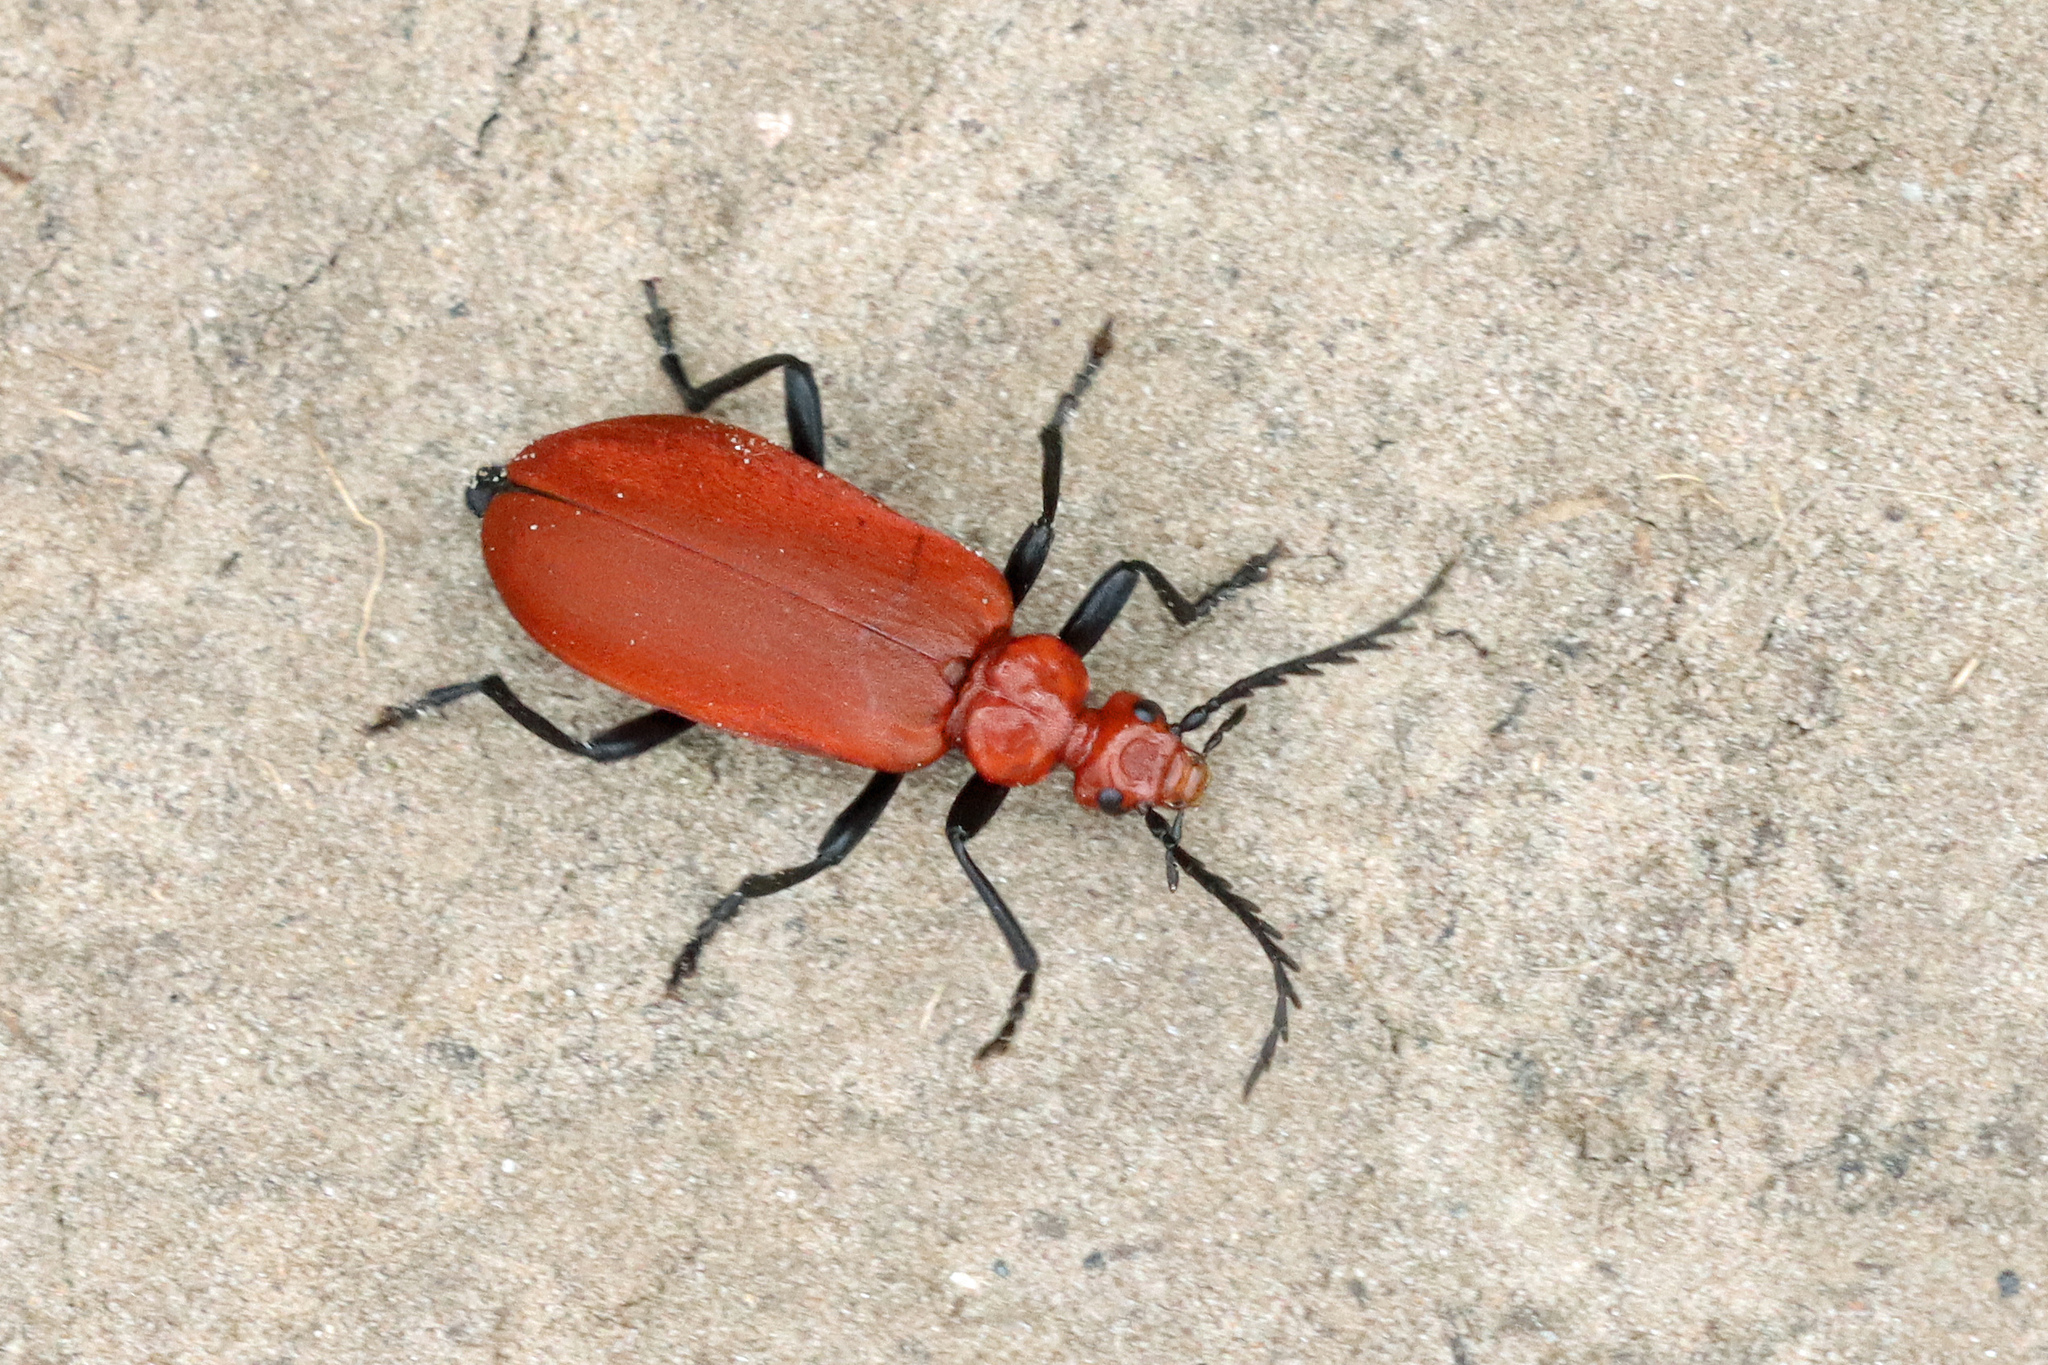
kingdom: Animalia
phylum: Arthropoda
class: Insecta
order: Coleoptera
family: Pyrochroidae
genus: Pyrochroa
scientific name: Pyrochroa serraticornis
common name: Red-headed cardinal beetle
